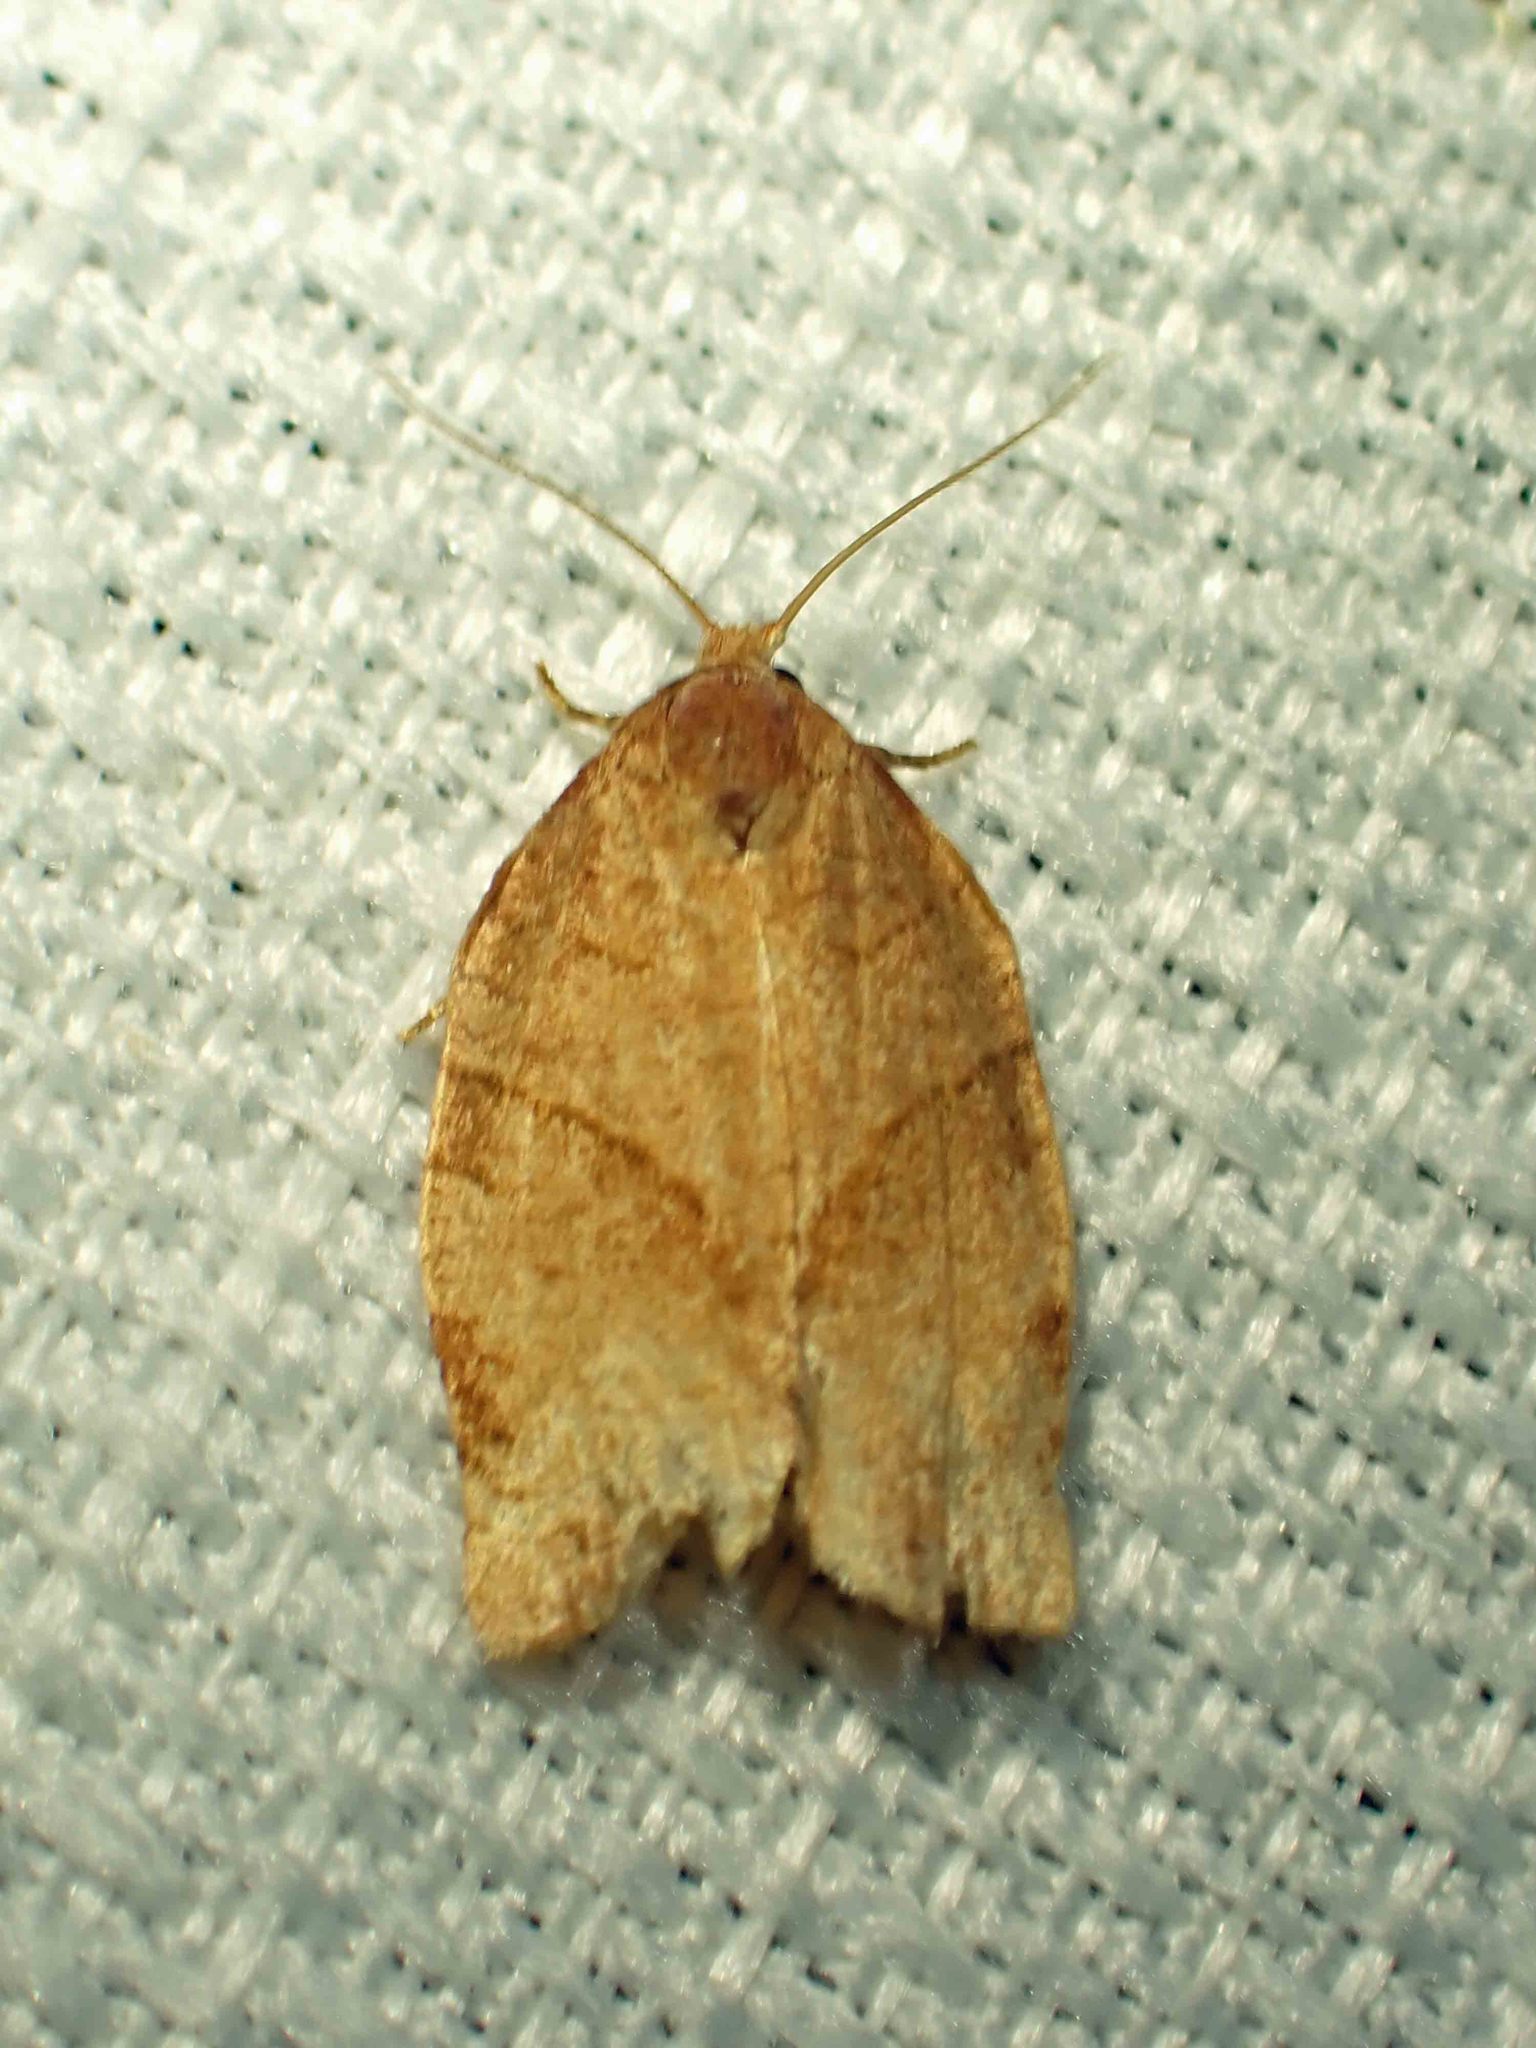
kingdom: Animalia
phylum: Arthropoda
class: Insecta
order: Lepidoptera
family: Tortricidae
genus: Choristoneura
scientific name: Choristoneura rosaceana
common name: Oblique-banded leafroller moth
